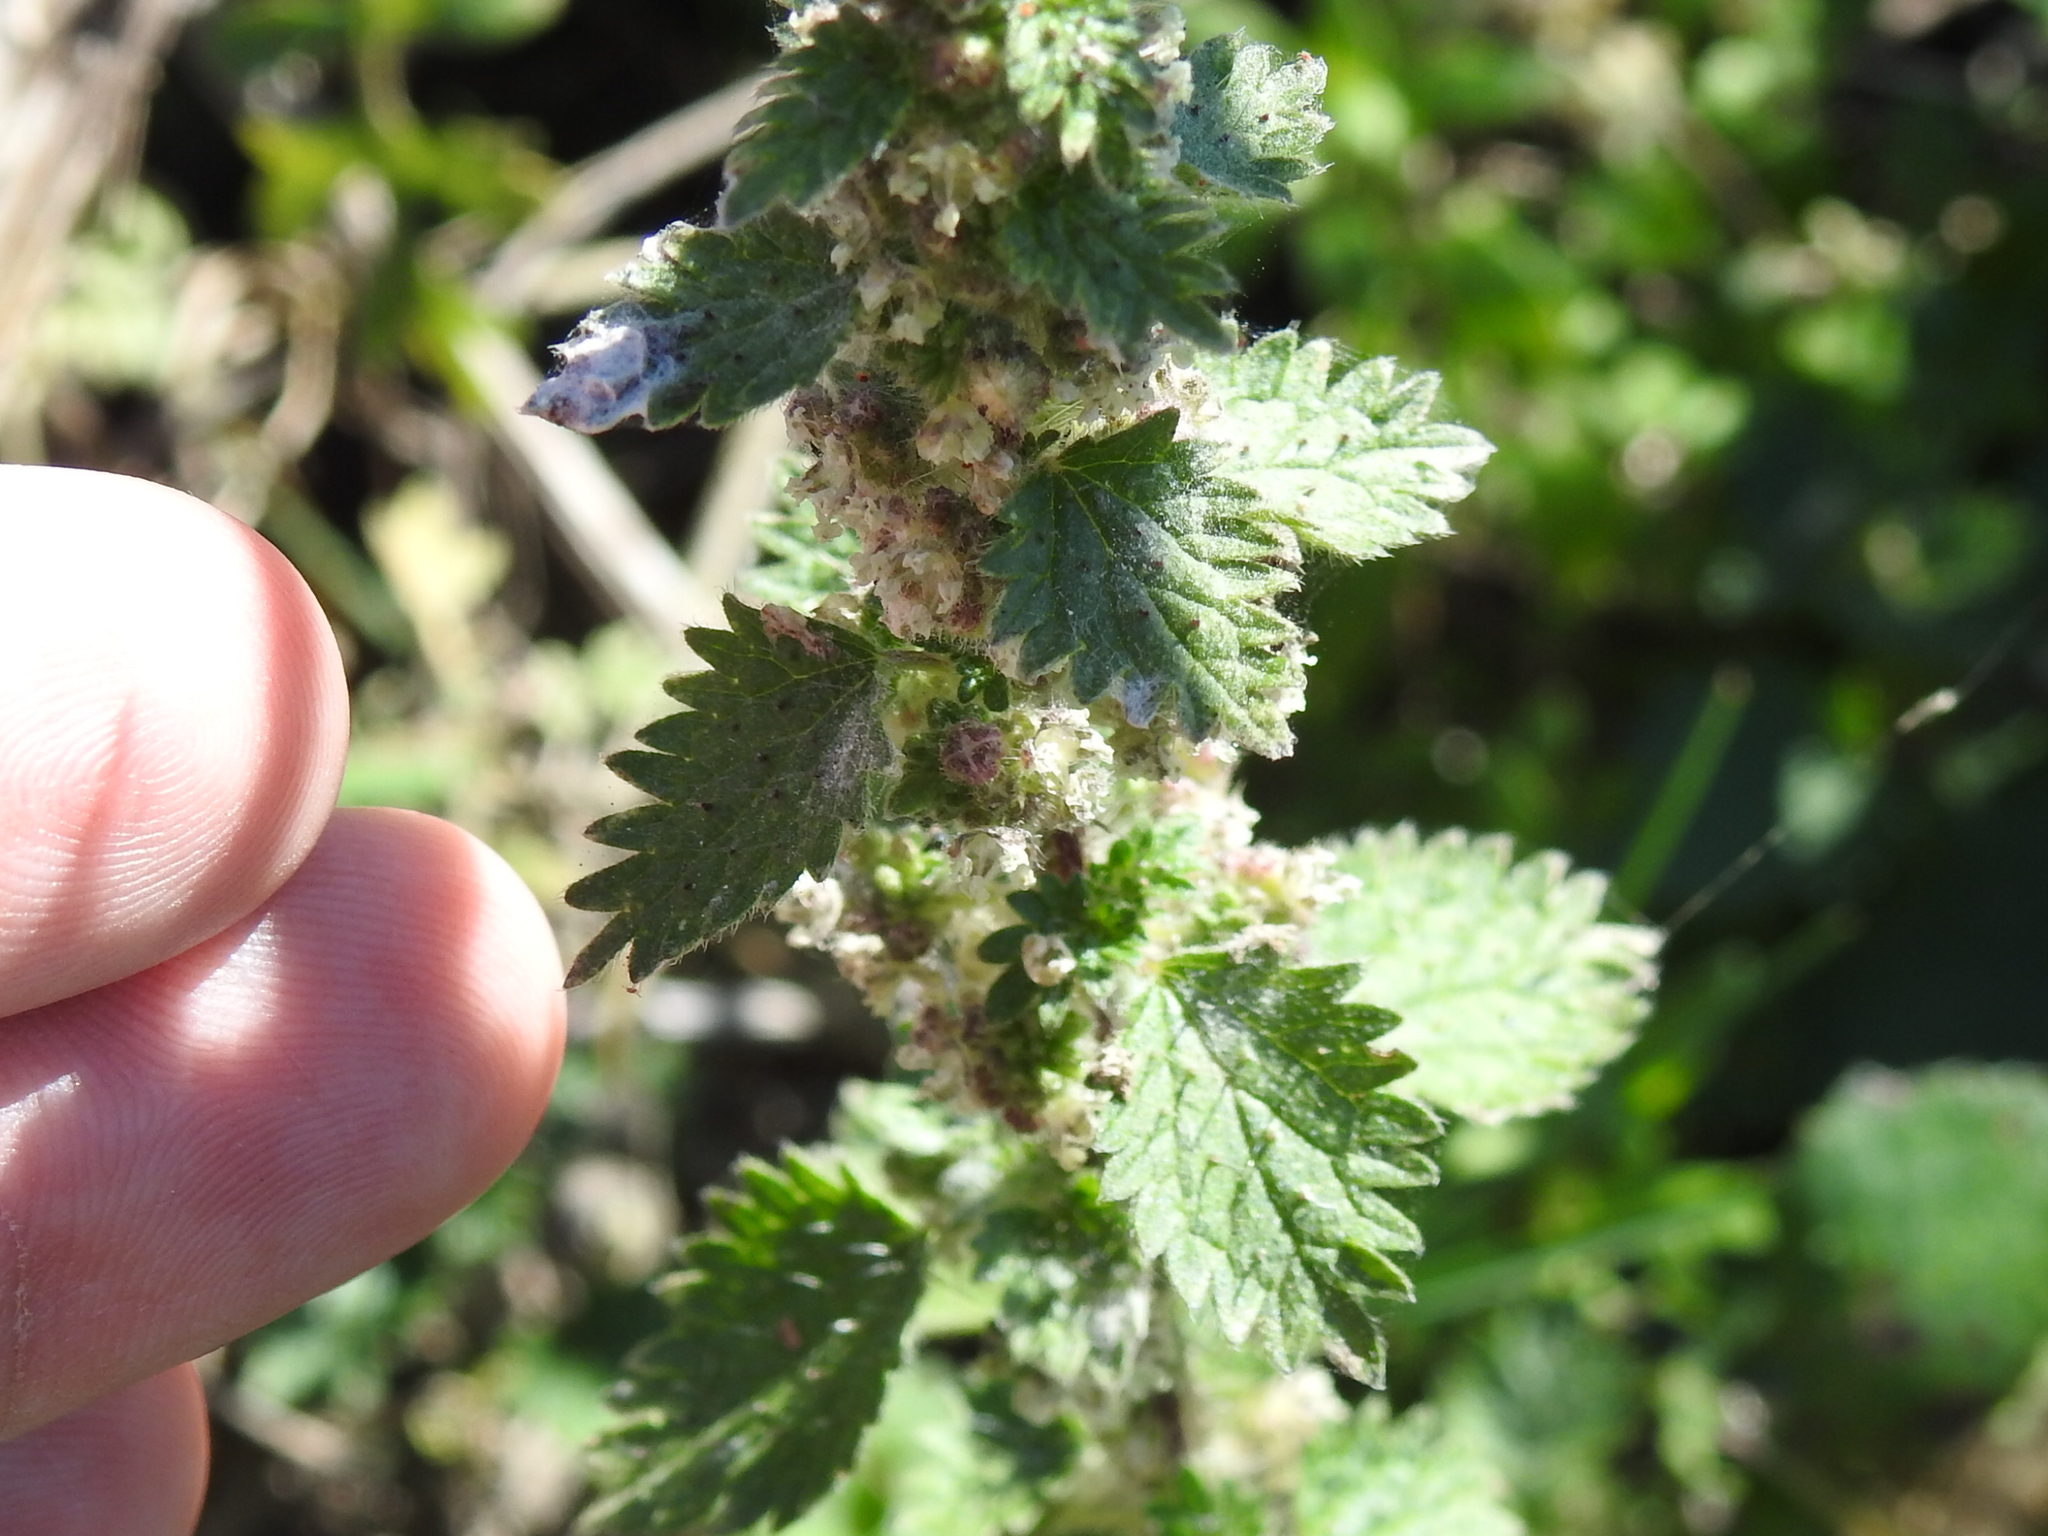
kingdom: Plantae
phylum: Tracheophyta
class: Magnoliopsida
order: Rosales
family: Urticaceae
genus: Urtica
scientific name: Urtica chamaedryoides
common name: Heart-leaf nettle
